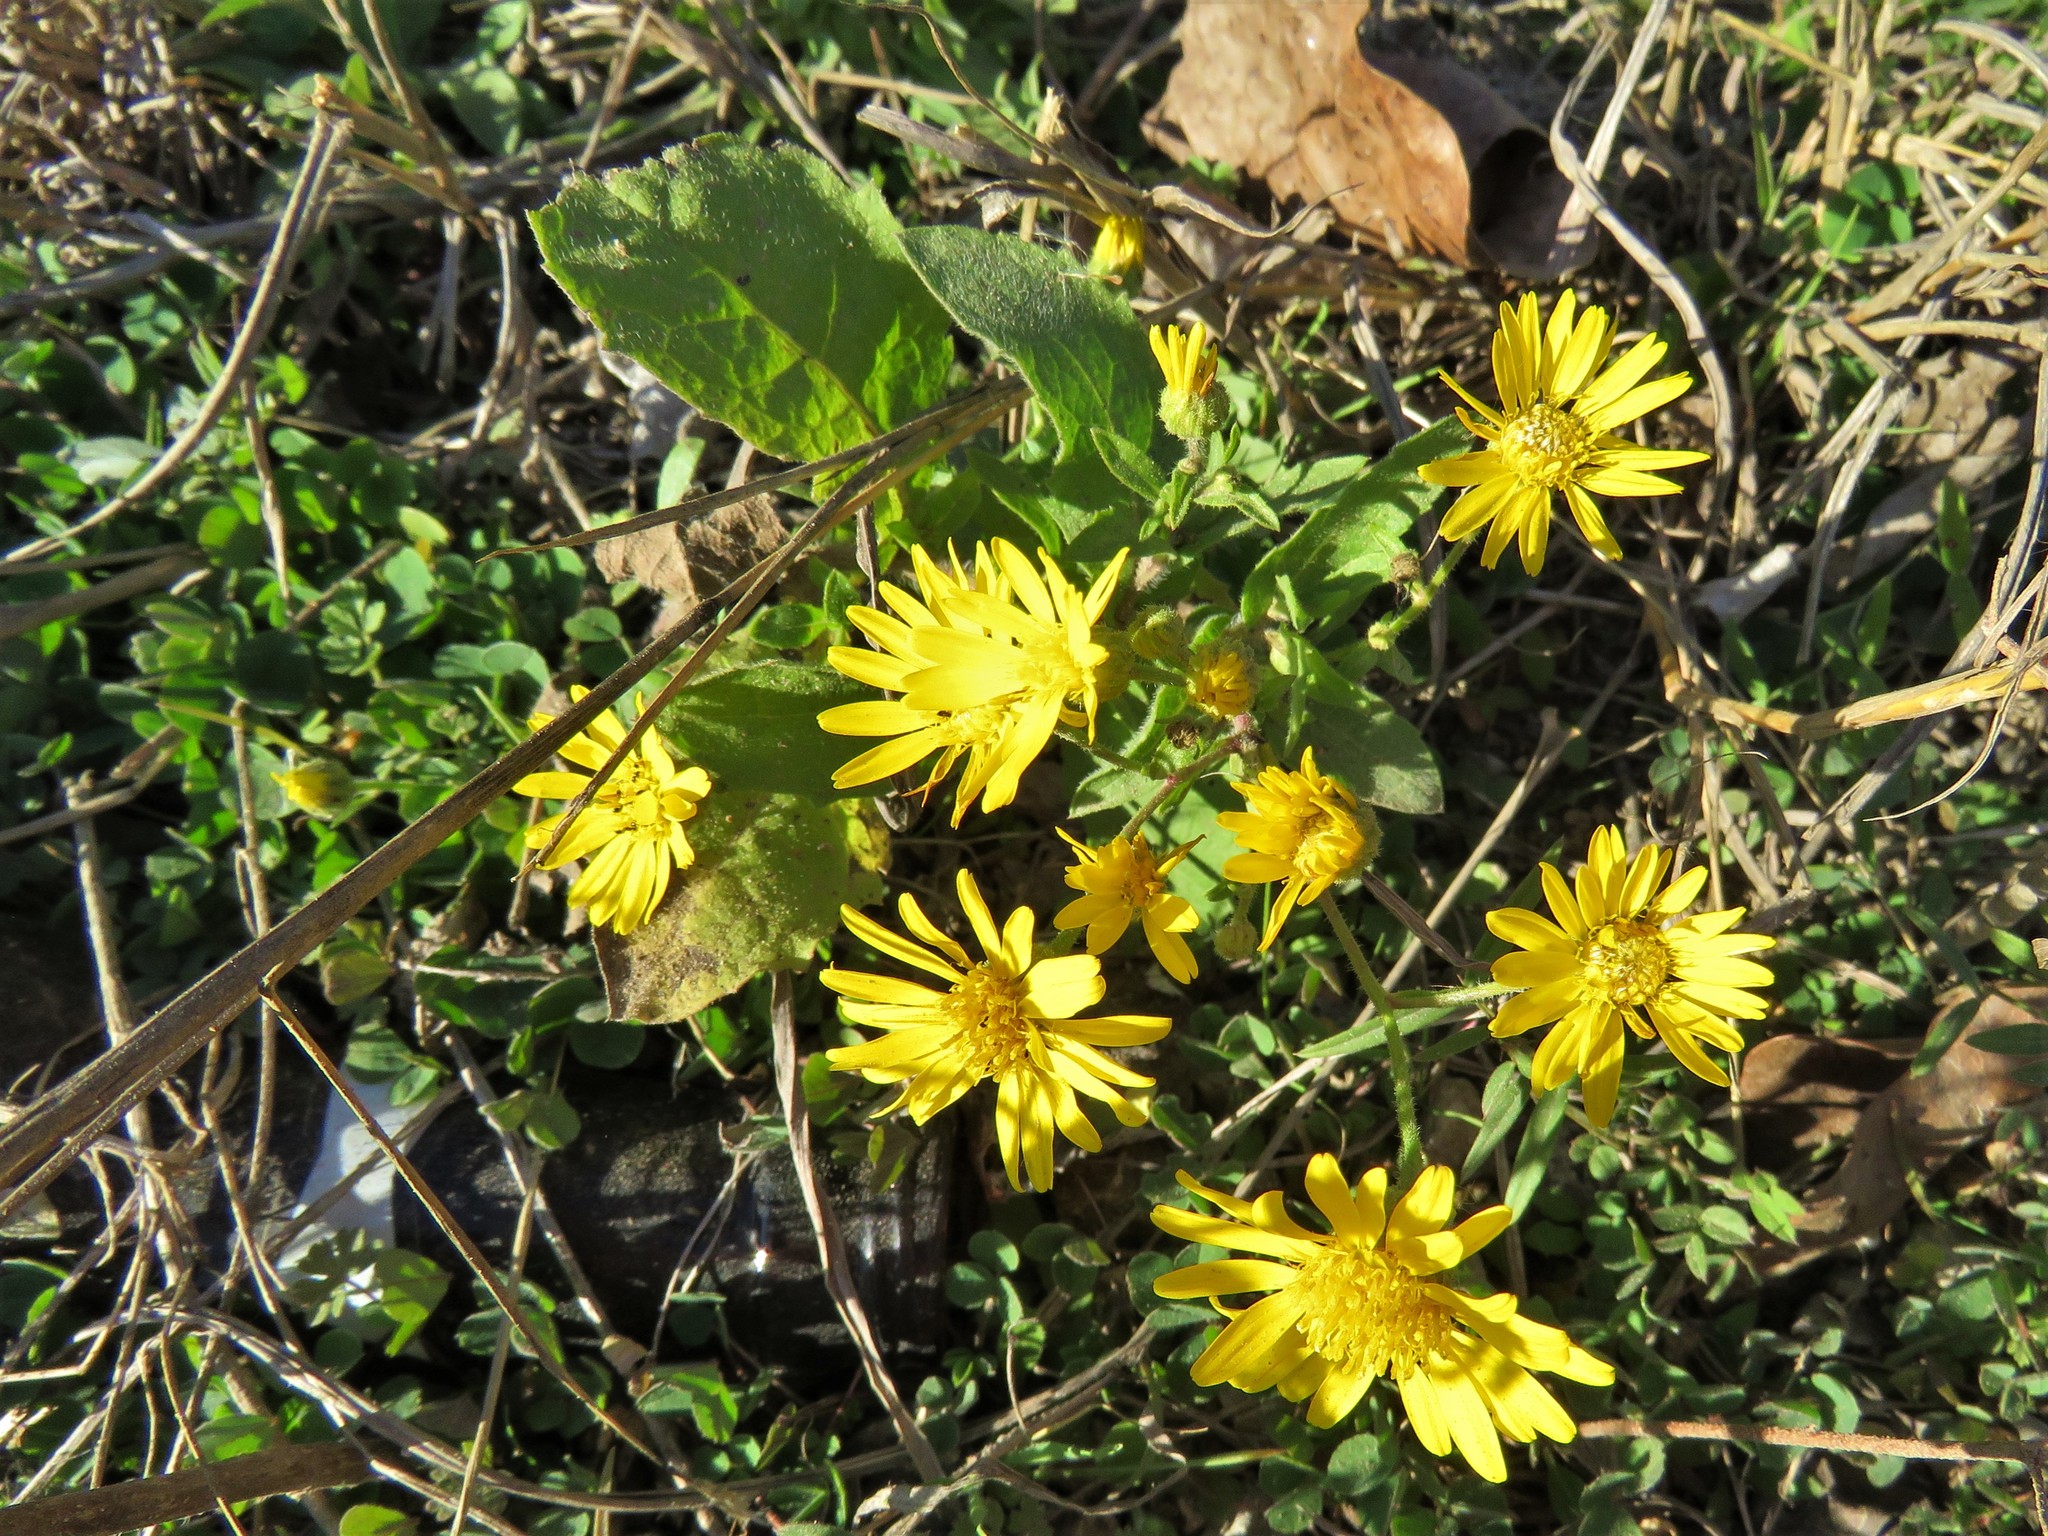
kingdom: Plantae
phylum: Tracheophyta
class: Magnoliopsida
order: Asterales
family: Asteraceae
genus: Heterotheca
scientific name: Heterotheca subaxillaris
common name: Camphorweed
